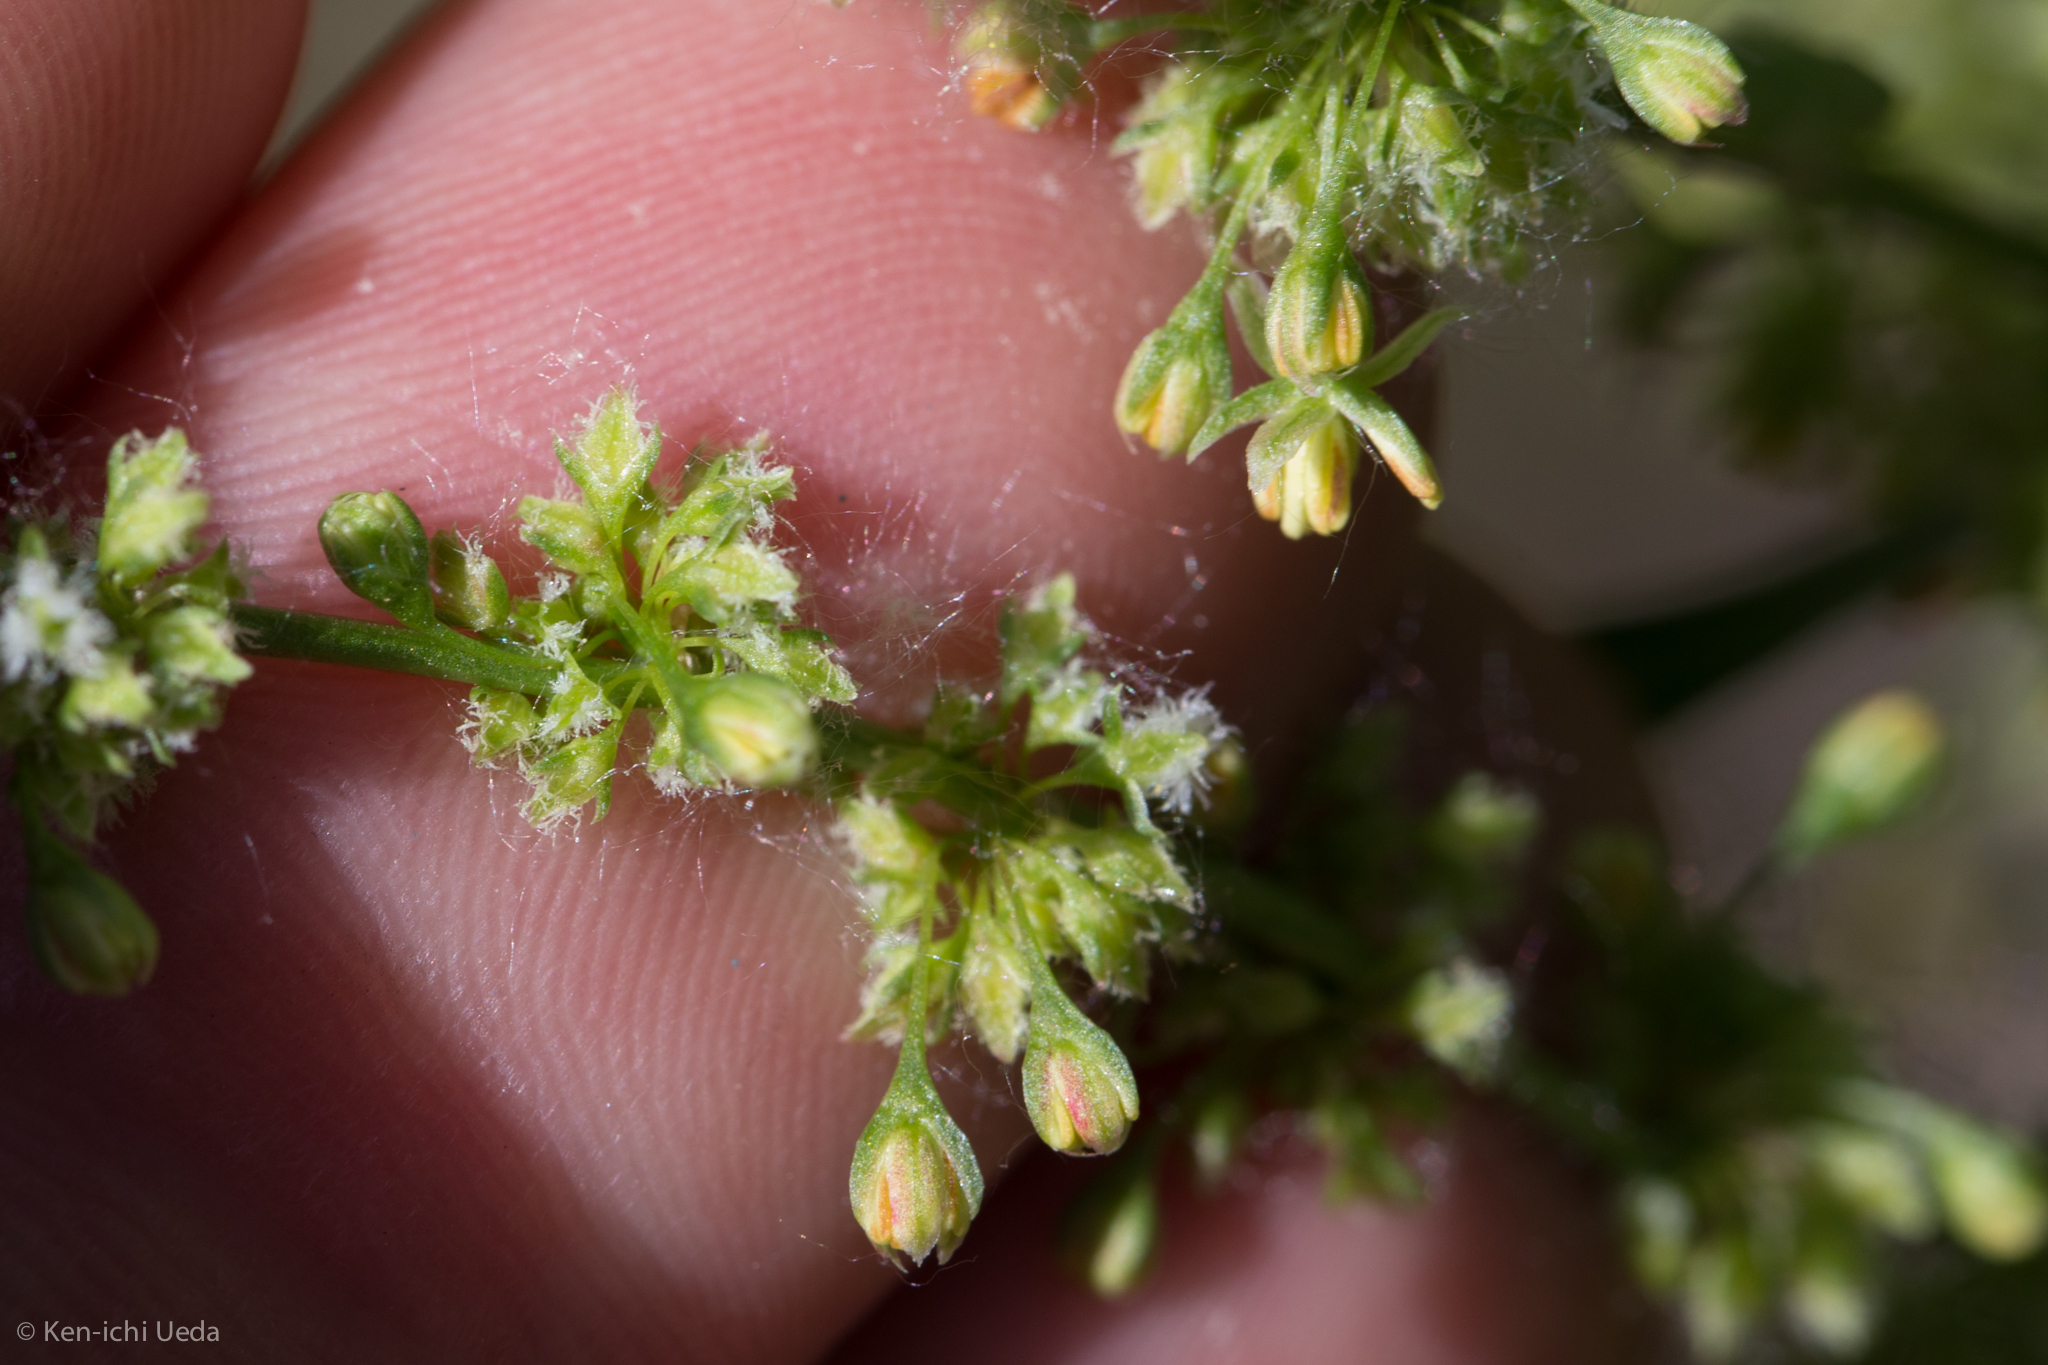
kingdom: Plantae
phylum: Tracheophyta
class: Magnoliopsida
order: Caryophyllales
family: Polygonaceae
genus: Rumex
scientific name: Rumex salicifolius
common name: Willow-leaved dock
